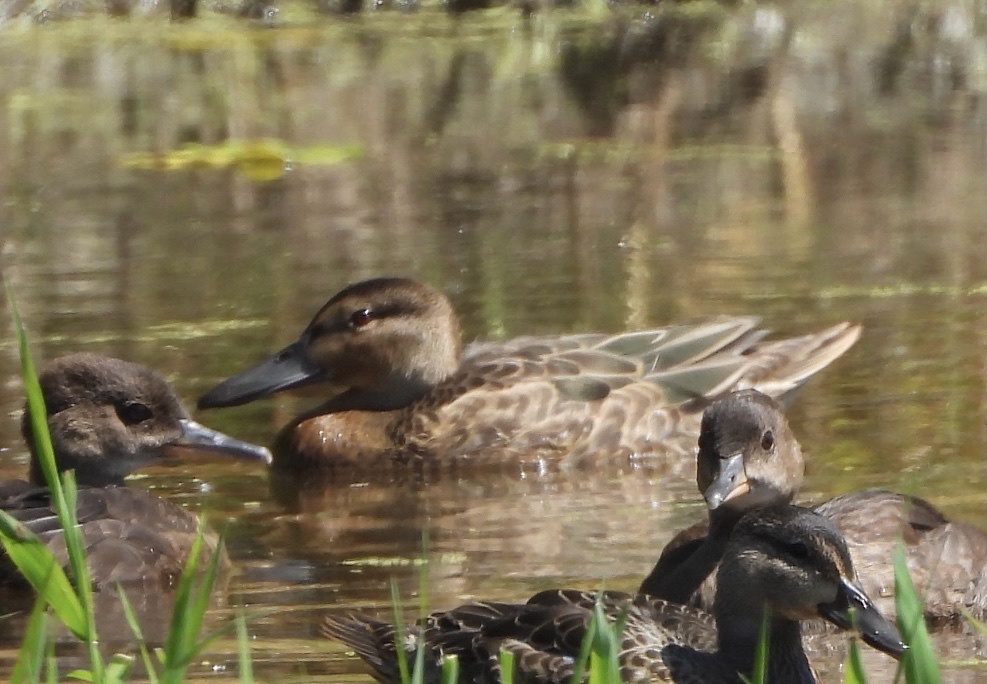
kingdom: Animalia
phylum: Chordata
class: Aves
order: Anseriformes
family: Anatidae
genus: Spatula
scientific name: Spatula cyanoptera
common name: Cinnamon teal
